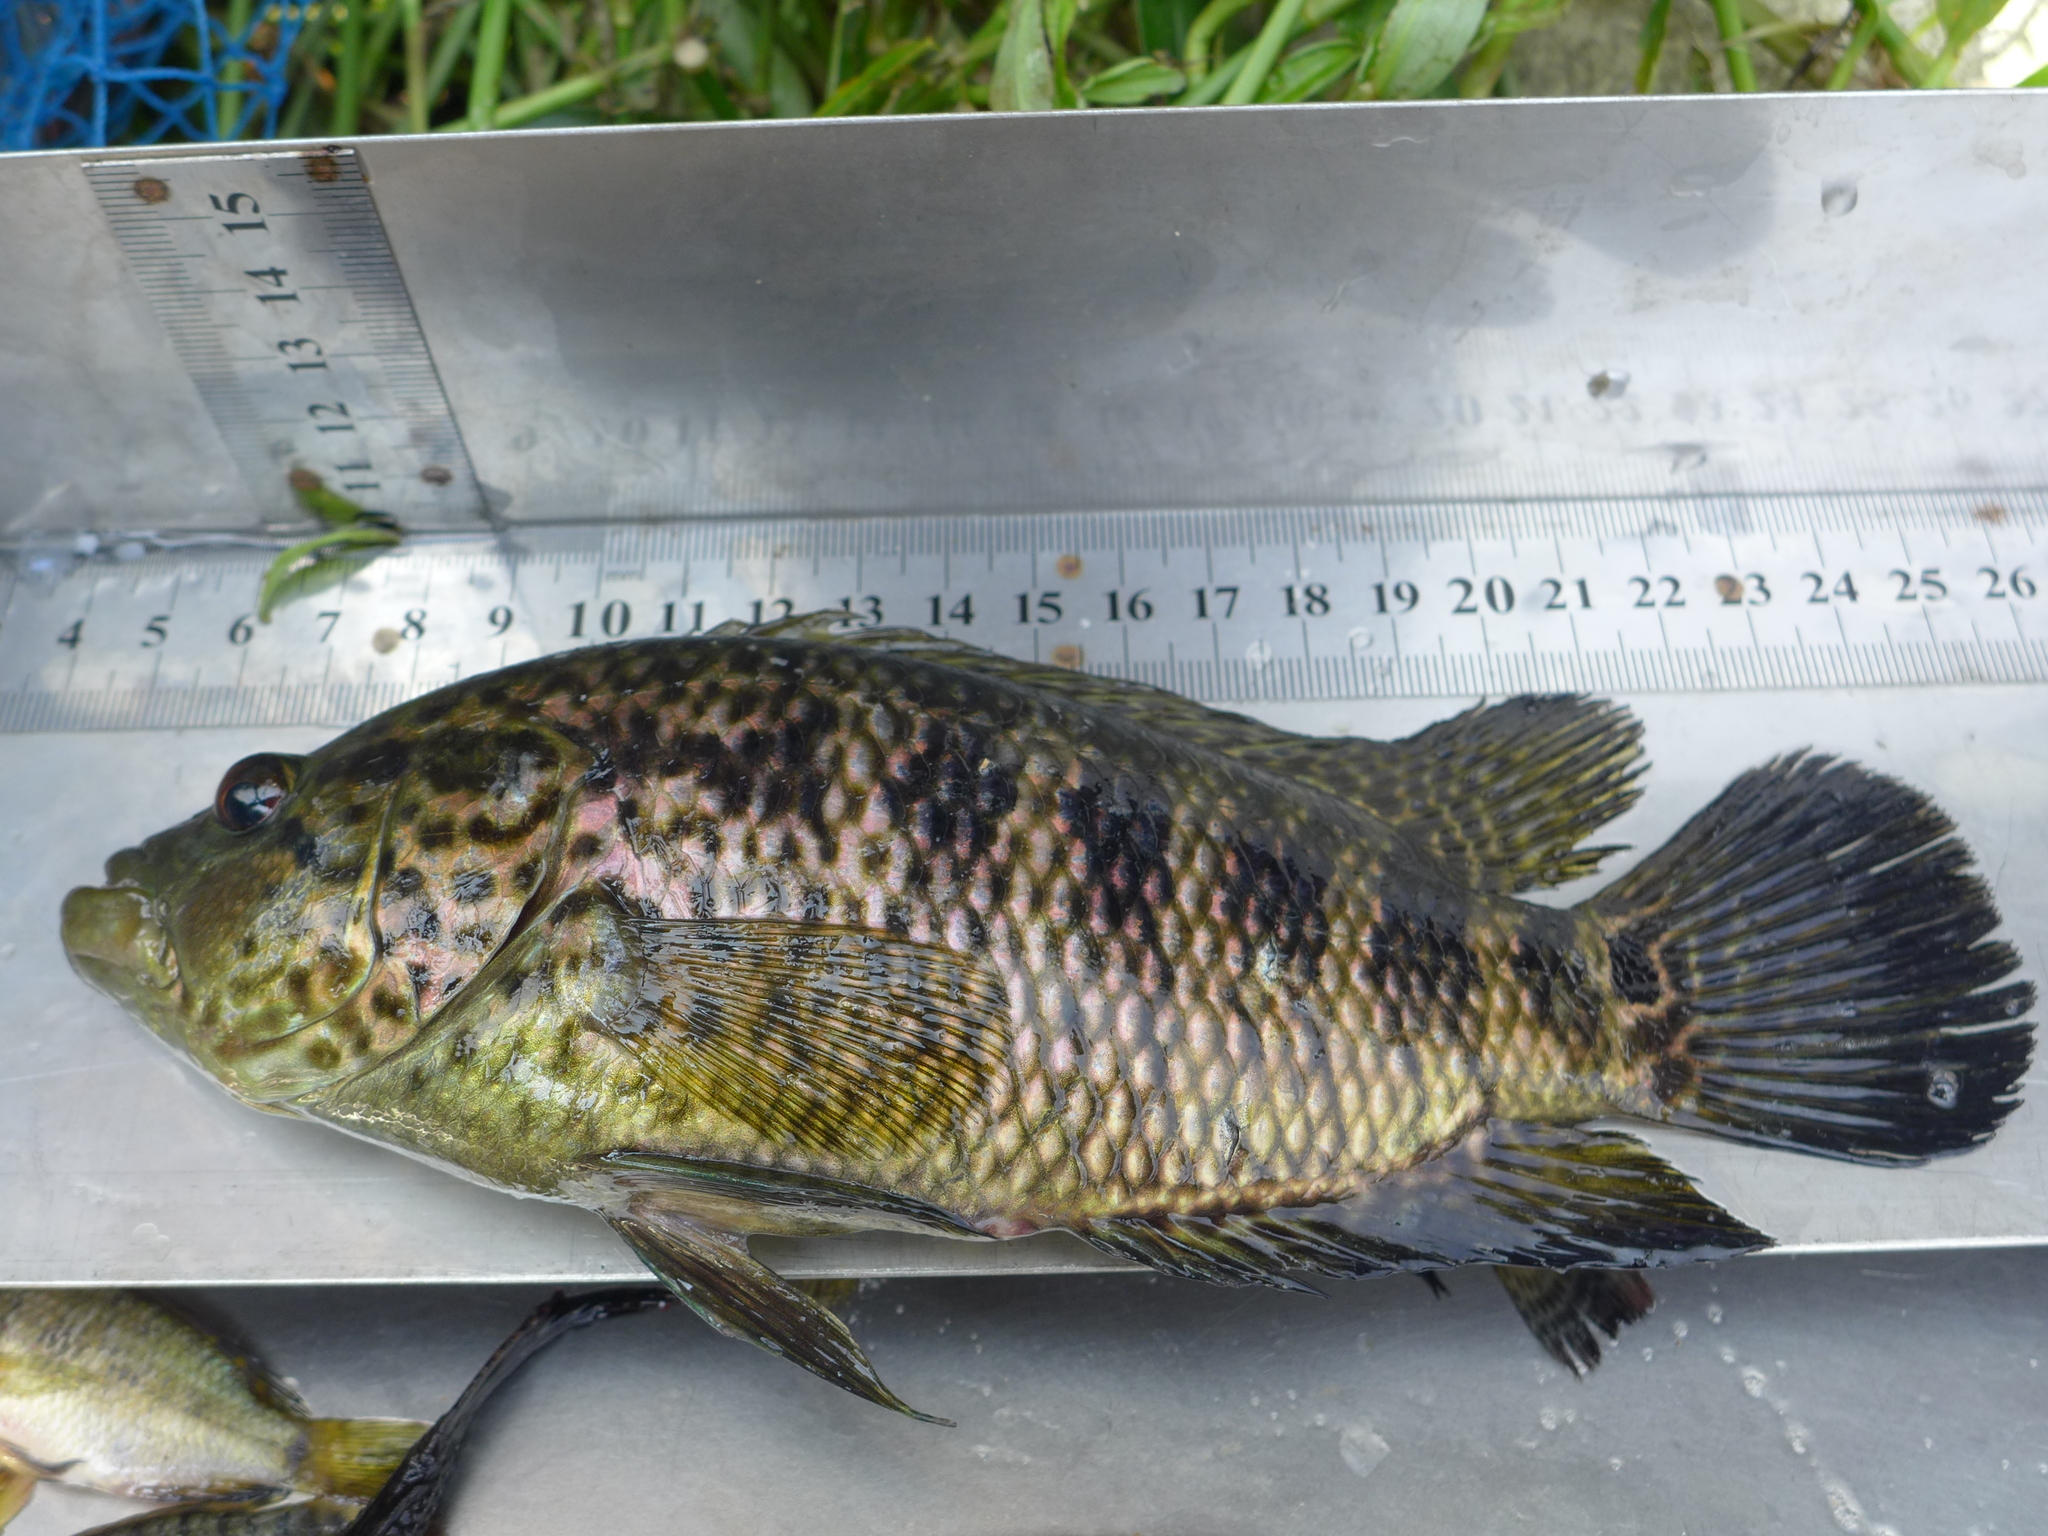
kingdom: Animalia
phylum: Chordata
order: Perciformes
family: Cichlidae
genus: Parachromis
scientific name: Parachromis managuensis
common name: Jaguar guapote
